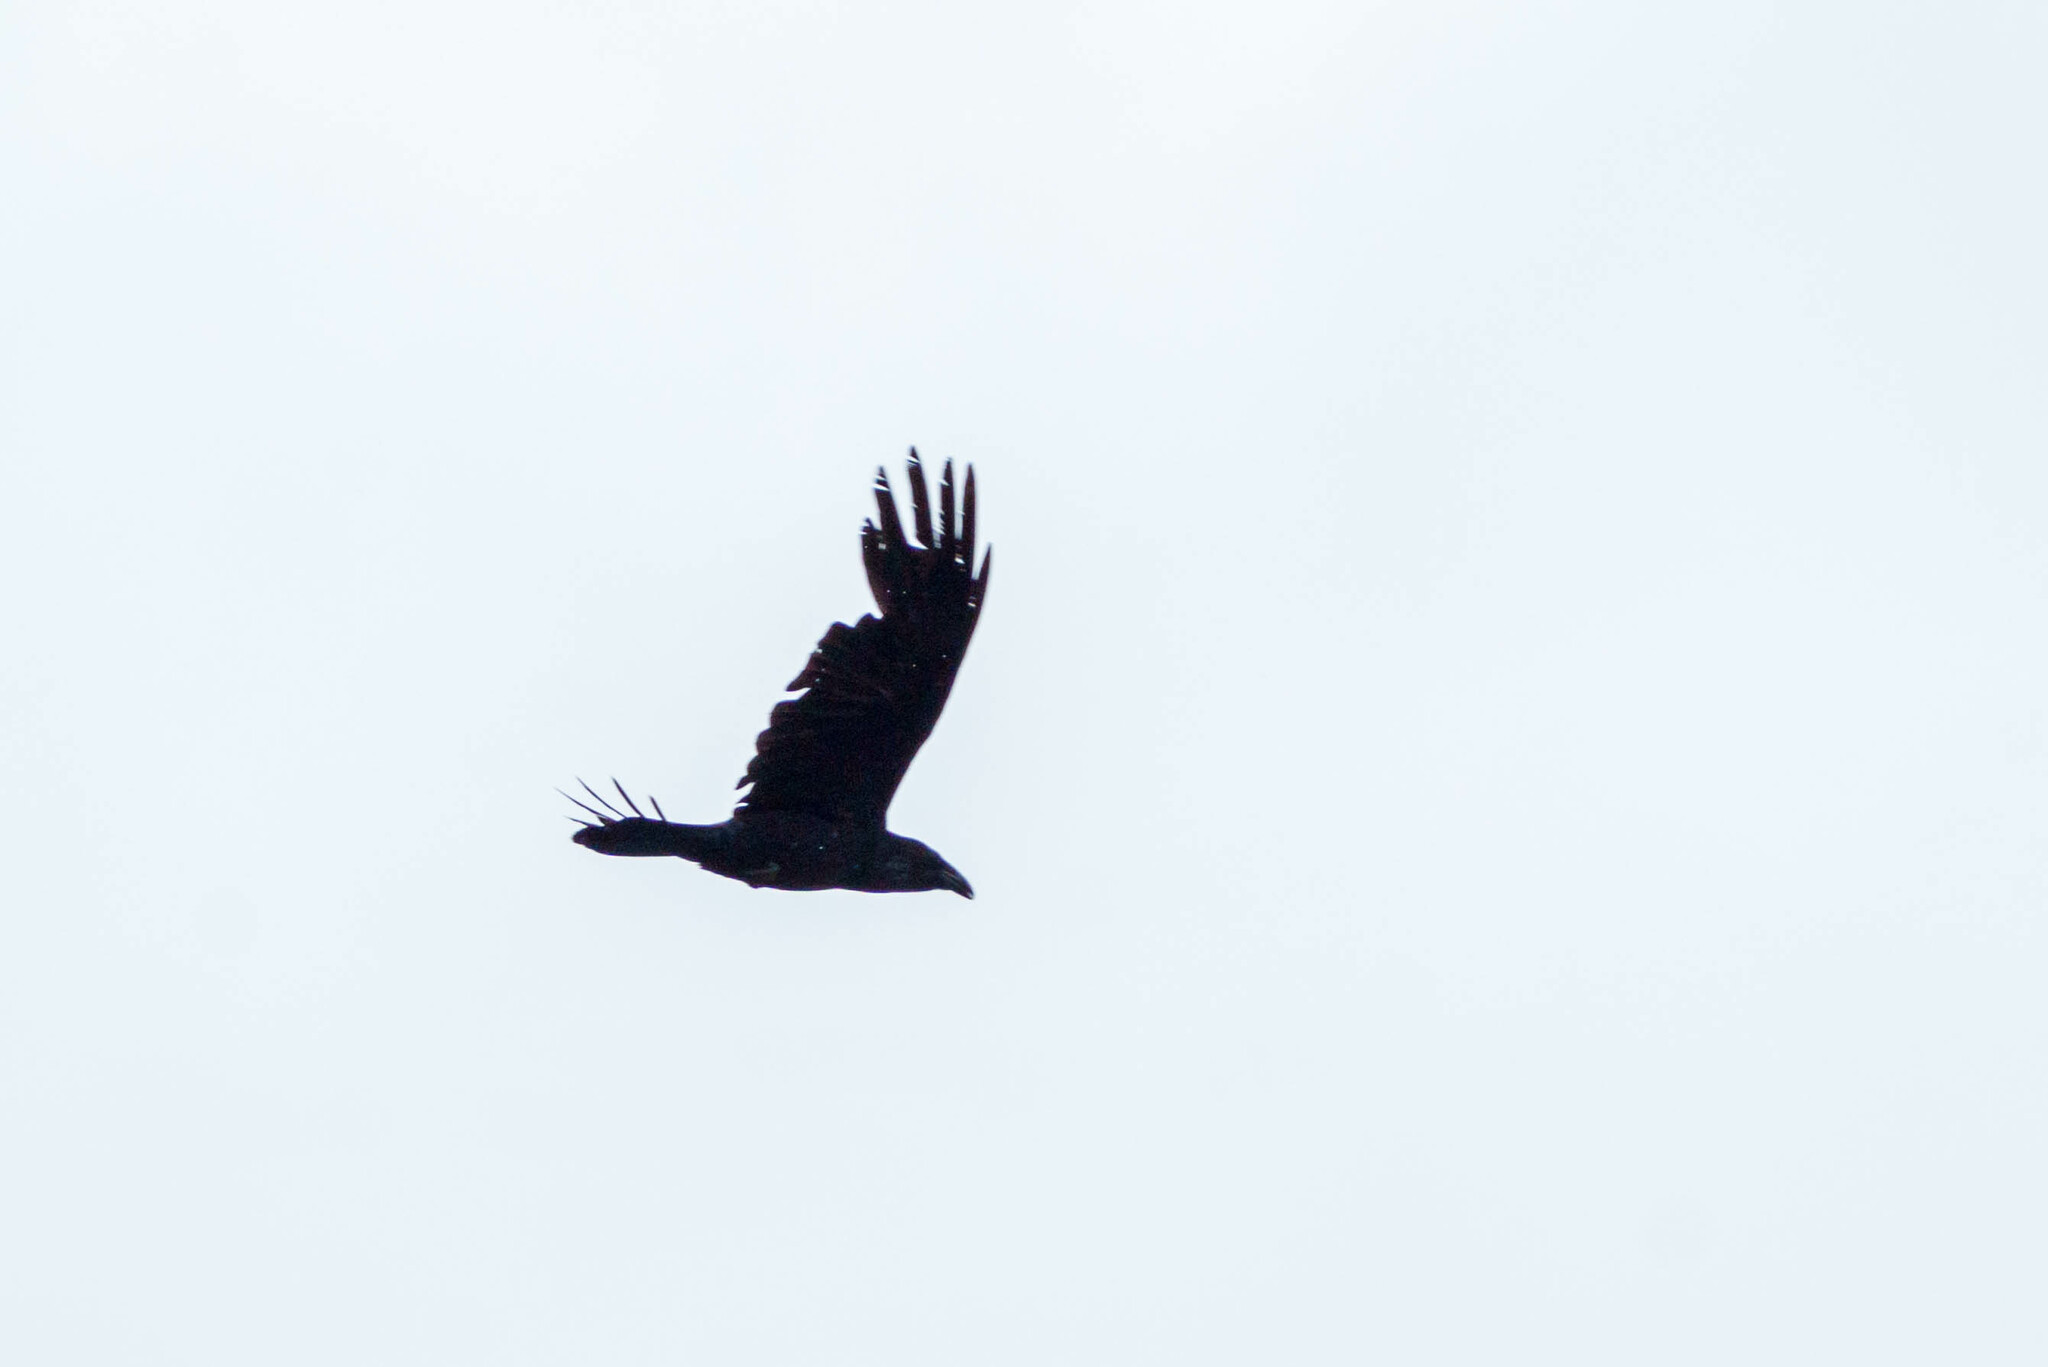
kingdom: Animalia
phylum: Chordata
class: Aves
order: Passeriformes
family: Corvidae
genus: Corvus
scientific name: Corvus corax
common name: Common raven
